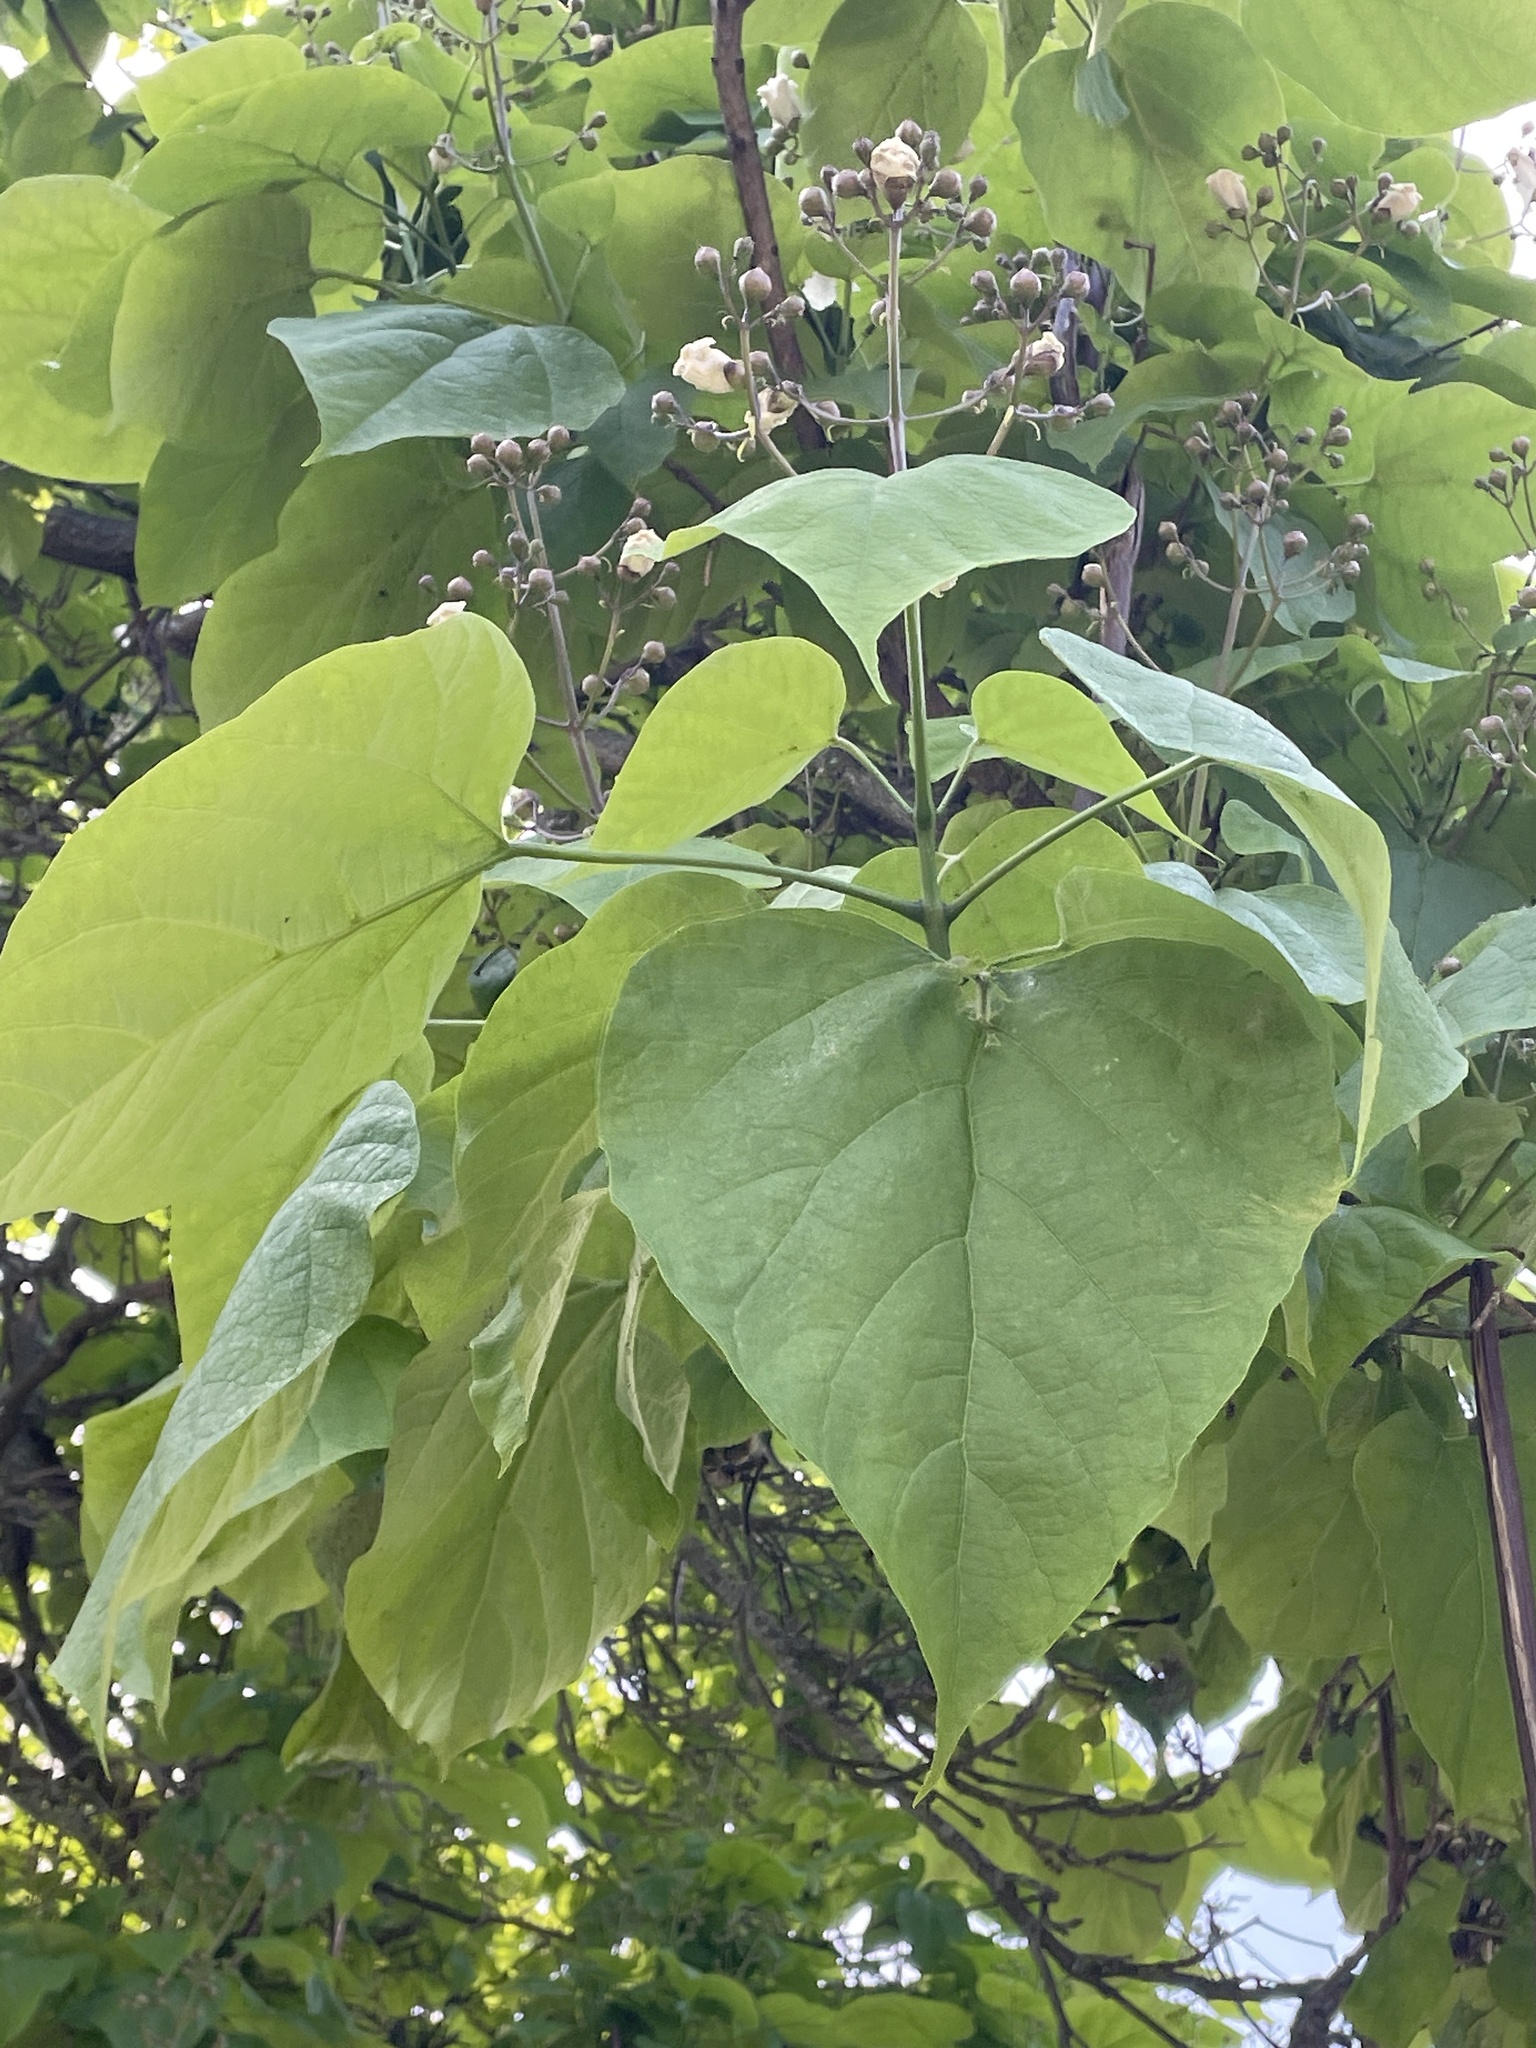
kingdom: Plantae
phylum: Tracheophyta
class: Magnoliopsida
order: Lamiales
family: Bignoniaceae
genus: Catalpa
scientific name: Catalpa speciosa
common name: Northern catalpa
